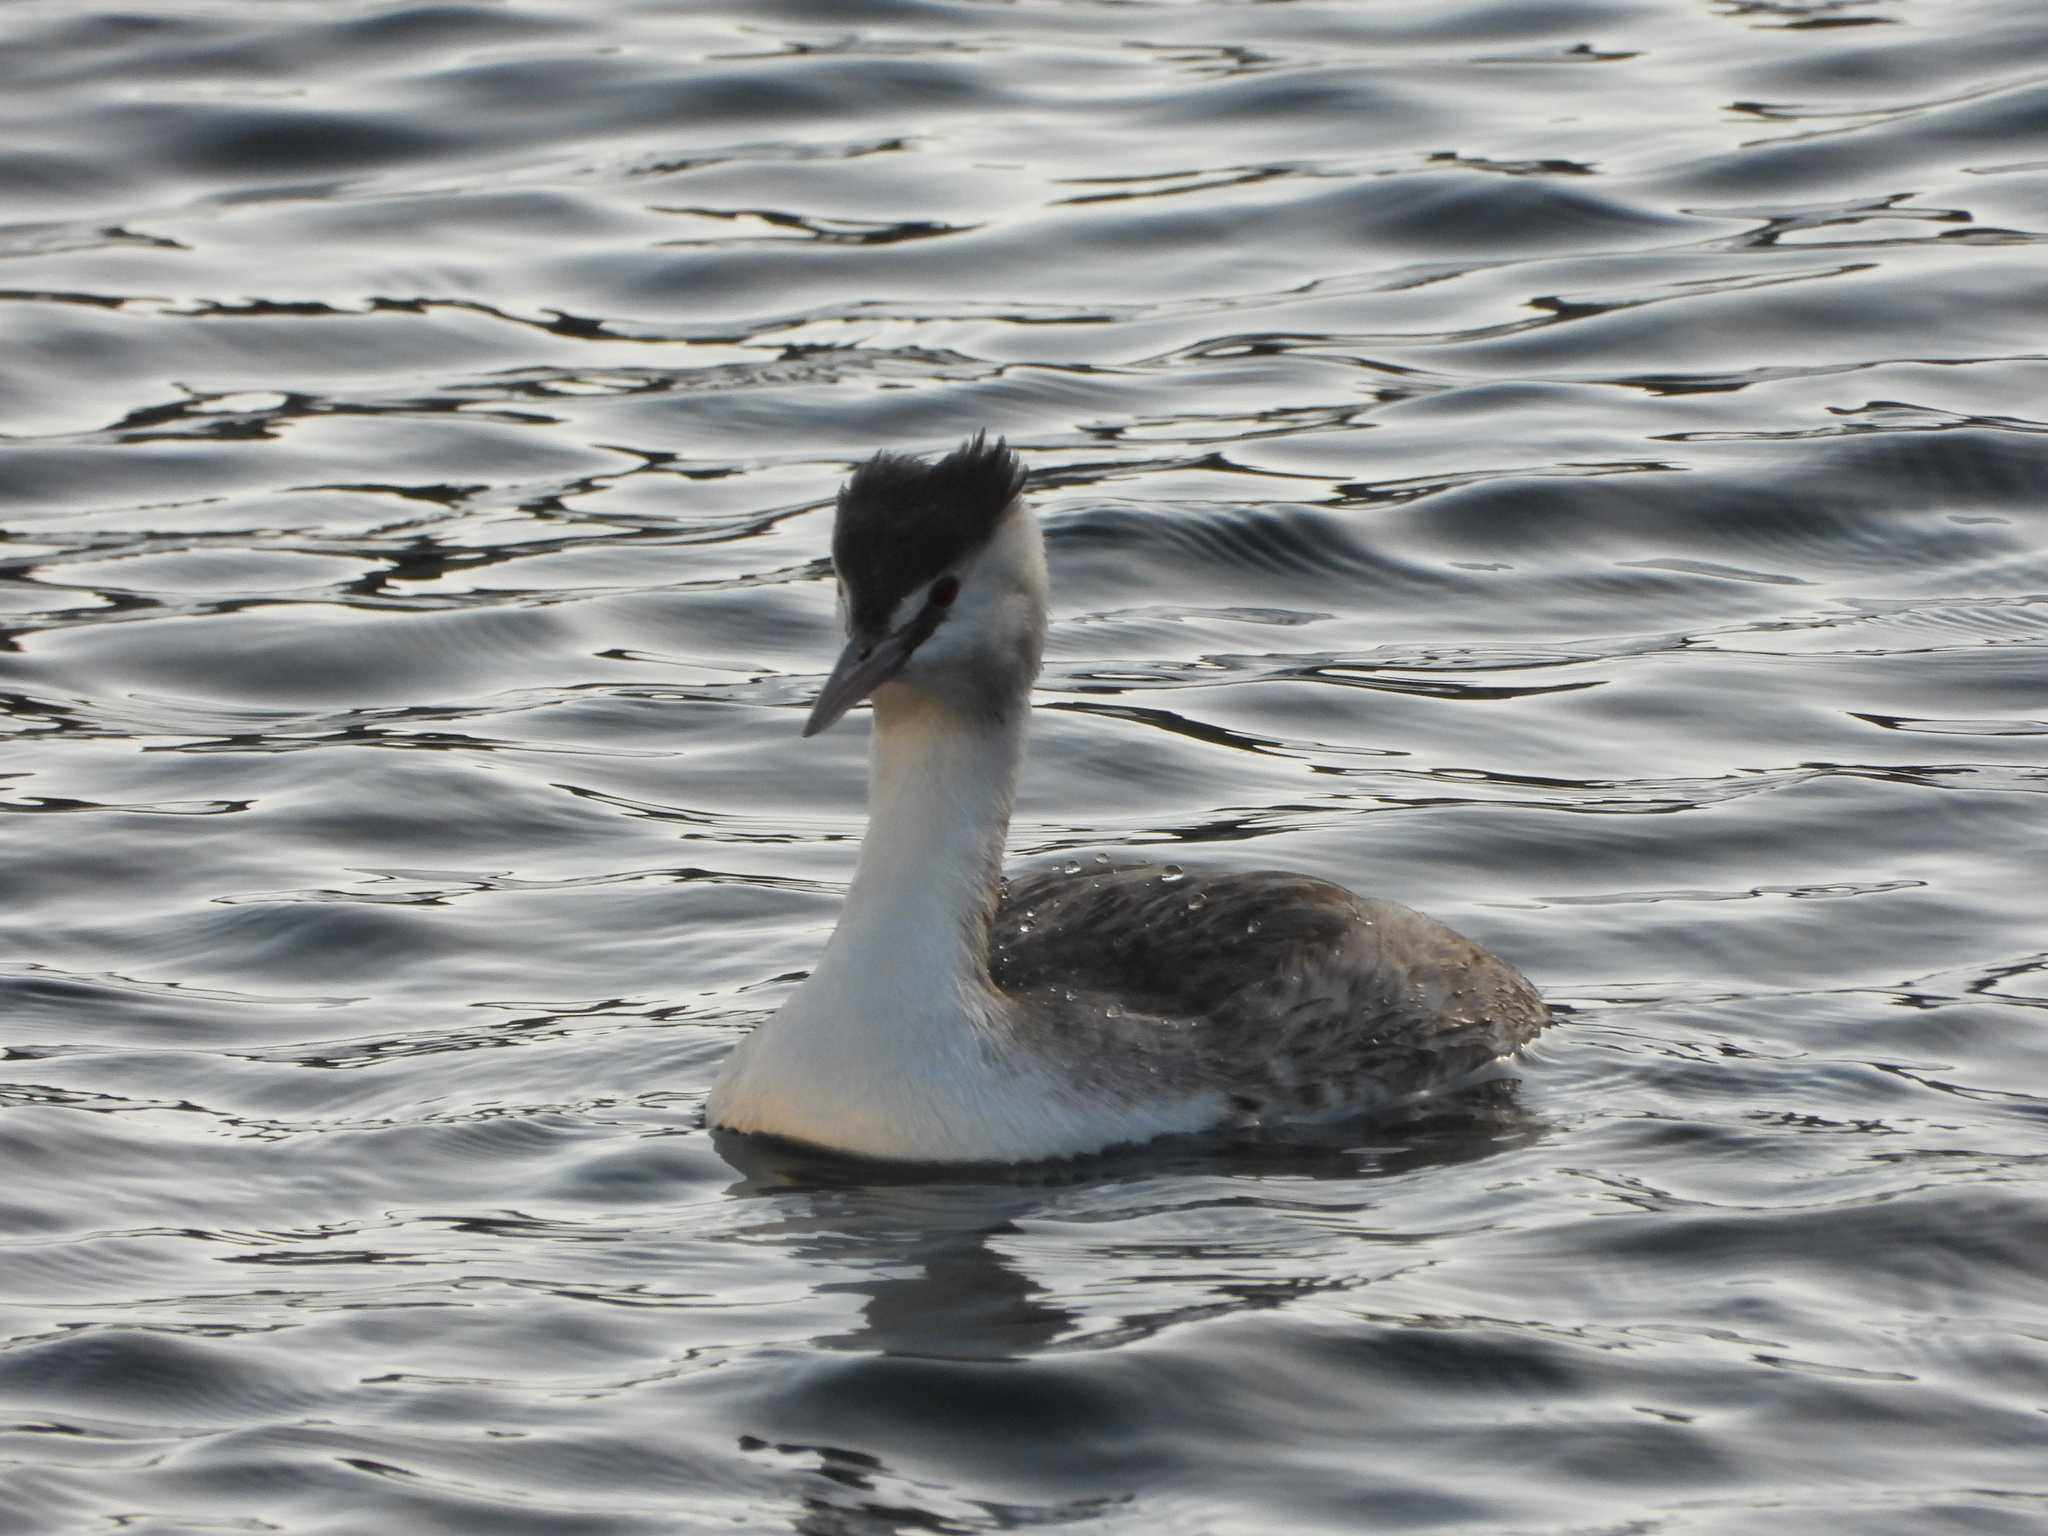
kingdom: Animalia
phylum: Chordata
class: Aves
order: Podicipediformes
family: Podicipedidae
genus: Podiceps
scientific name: Podiceps cristatus
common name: Great crested grebe
